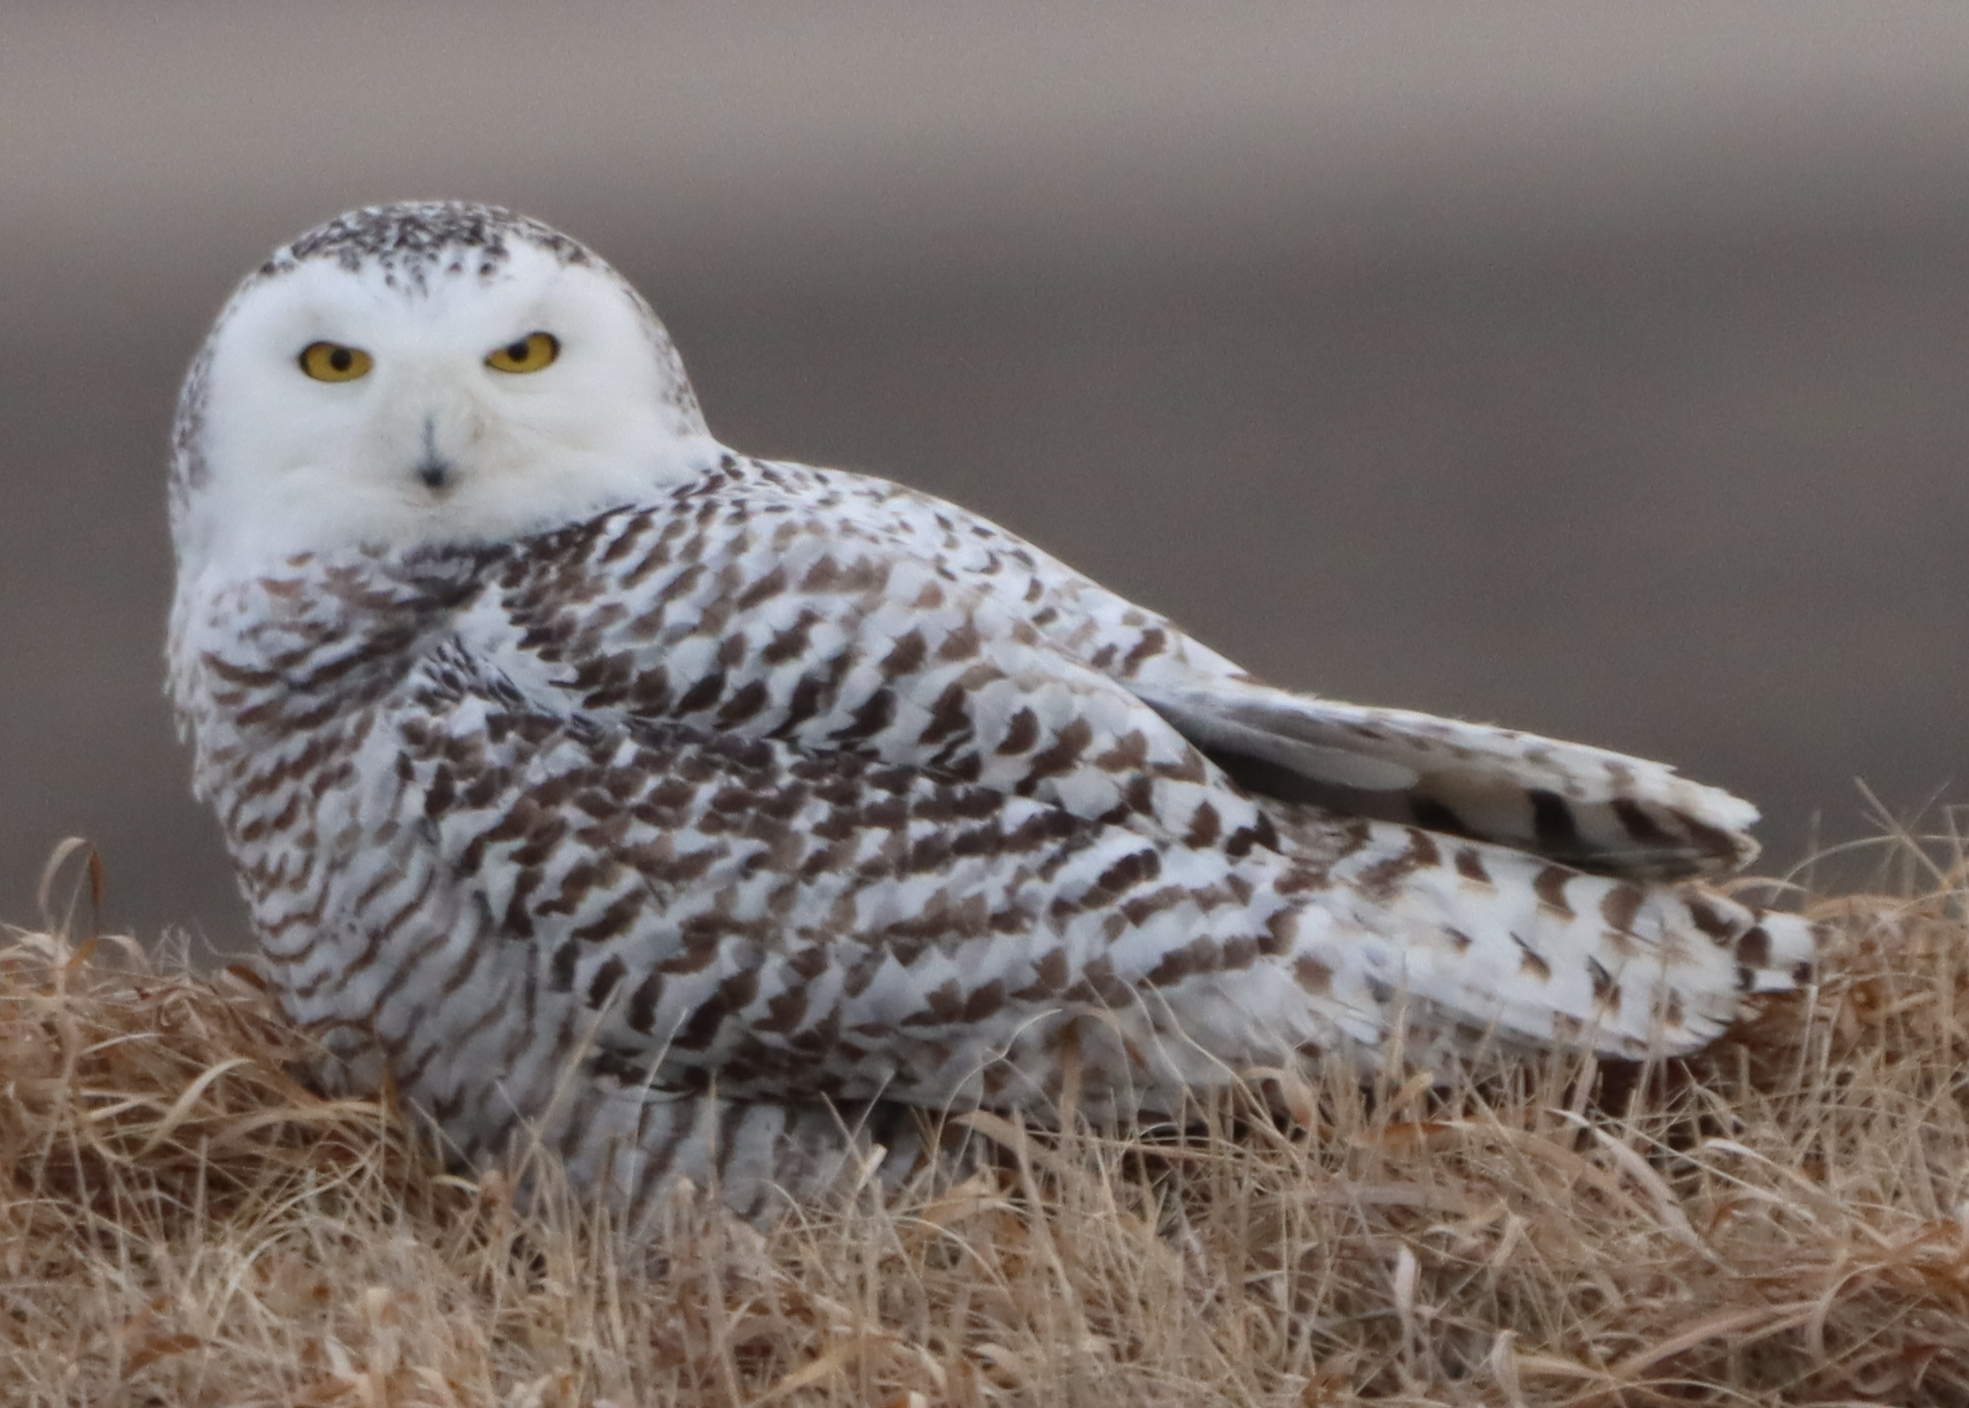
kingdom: Animalia
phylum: Chordata
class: Aves
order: Strigiformes
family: Strigidae
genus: Bubo
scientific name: Bubo scandiacus
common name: Snowy owl
